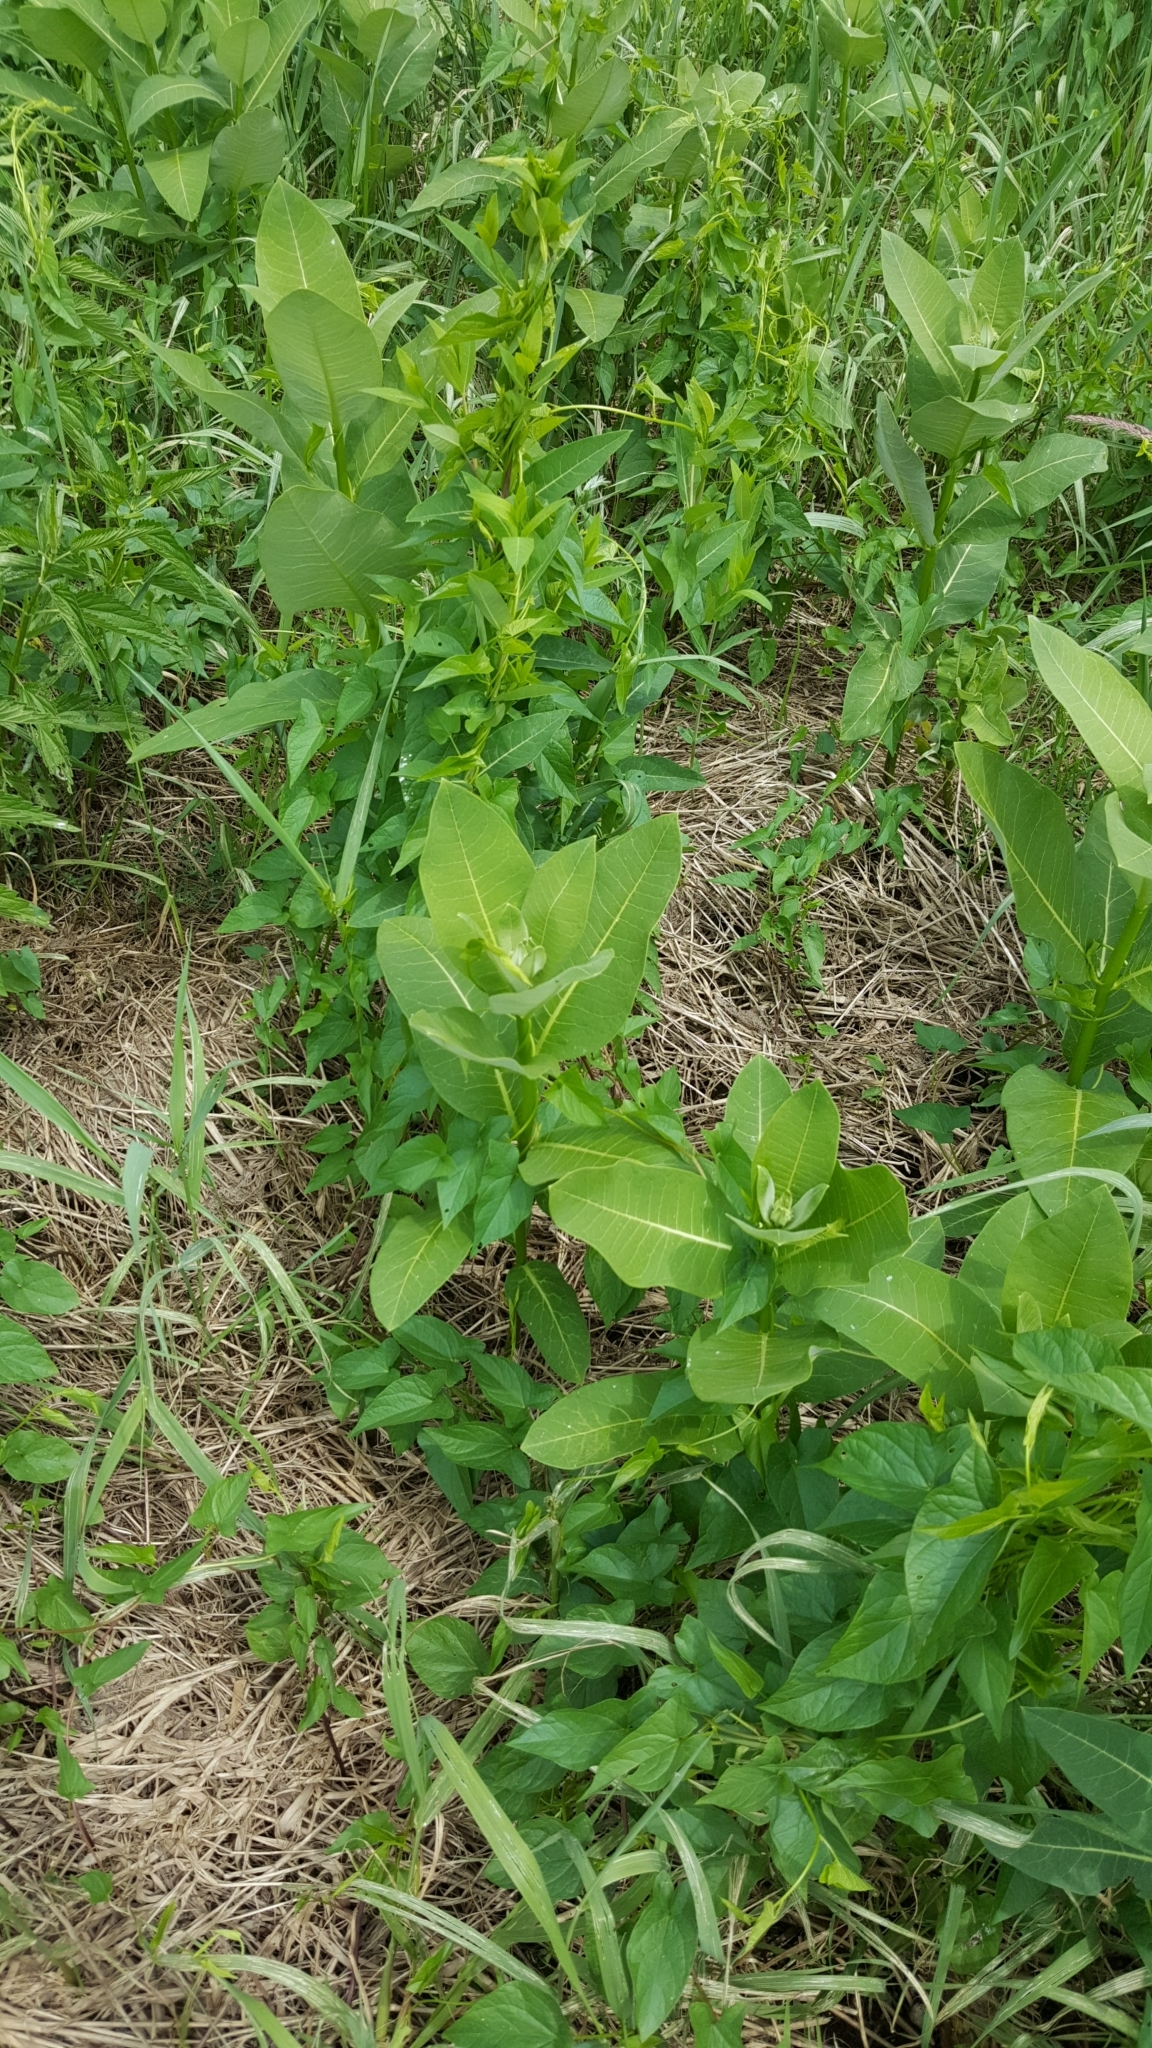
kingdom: Plantae
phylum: Tracheophyta
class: Magnoliopsida
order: Gentianales
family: Apocynaceae
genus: Asclepias
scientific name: Asclepias syriaca
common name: Common milkweed
